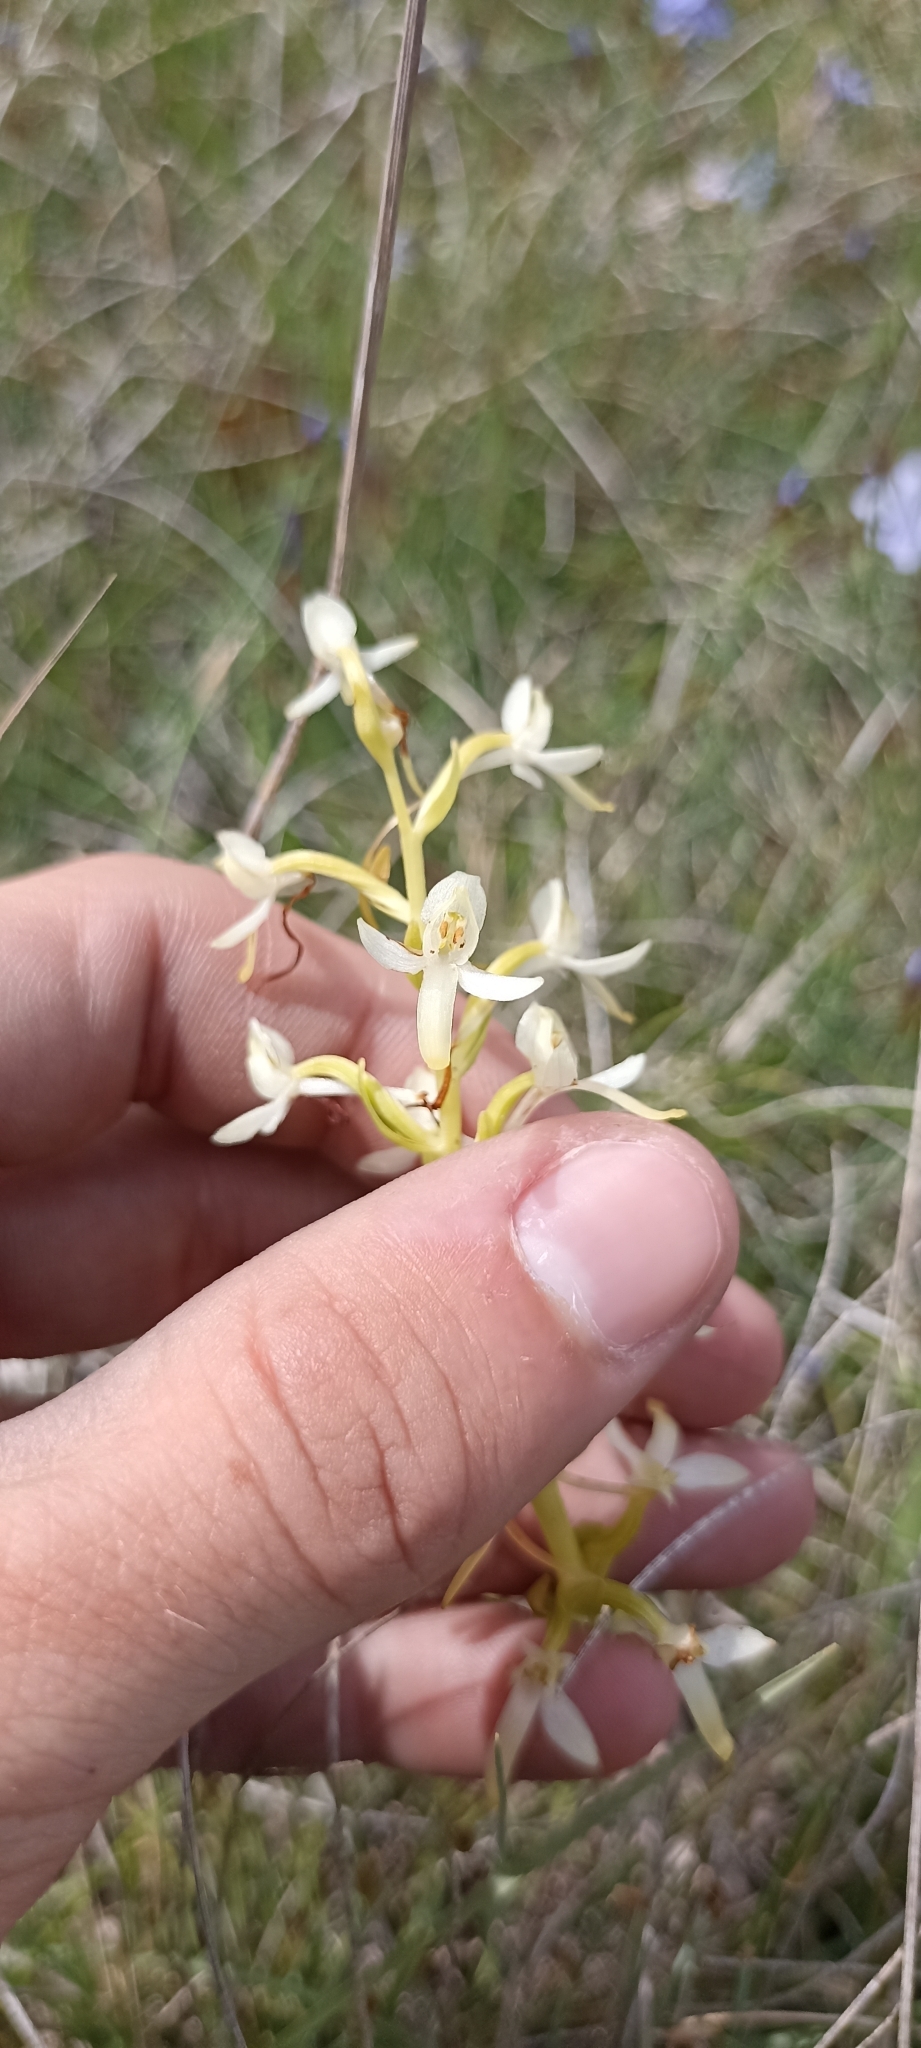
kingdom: Plantae
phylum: Tracheophyta
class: Liliopsida
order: Asparagales
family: Orchidaceae
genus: Platanthera
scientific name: Platanthera bifolia
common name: Lesser butterfly-orchid
